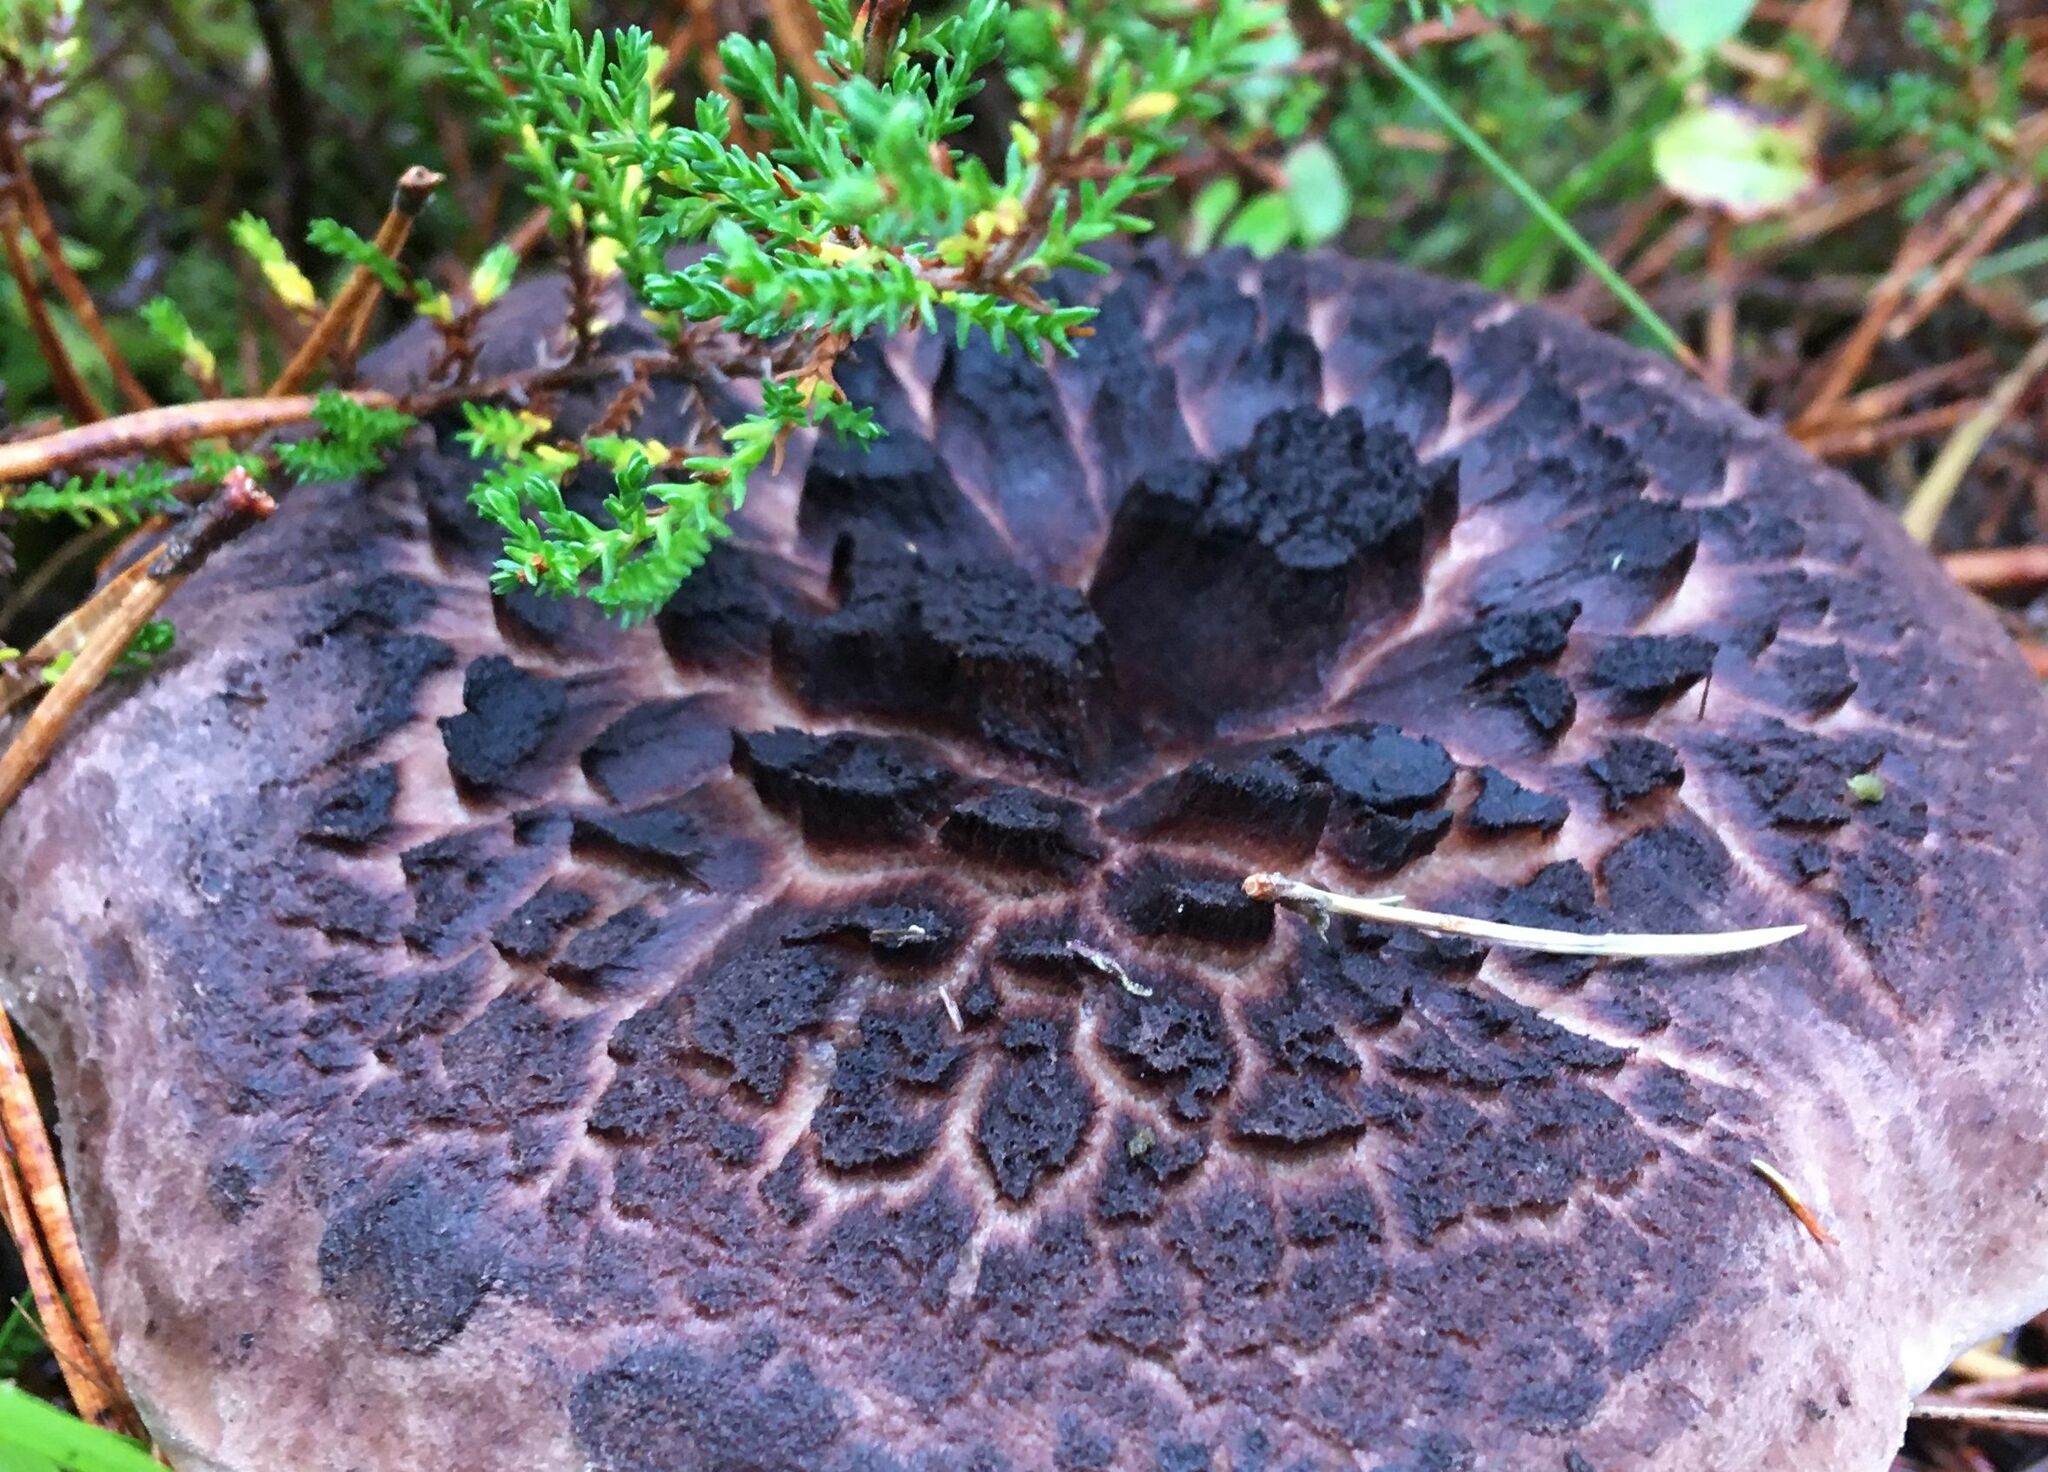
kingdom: Fungi
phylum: Basidiomycota
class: Agaricomycetes
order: Thelephorales
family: Bankeraceae
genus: Sarcodon
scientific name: Sarcodon squamosus
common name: Scaly tooth
